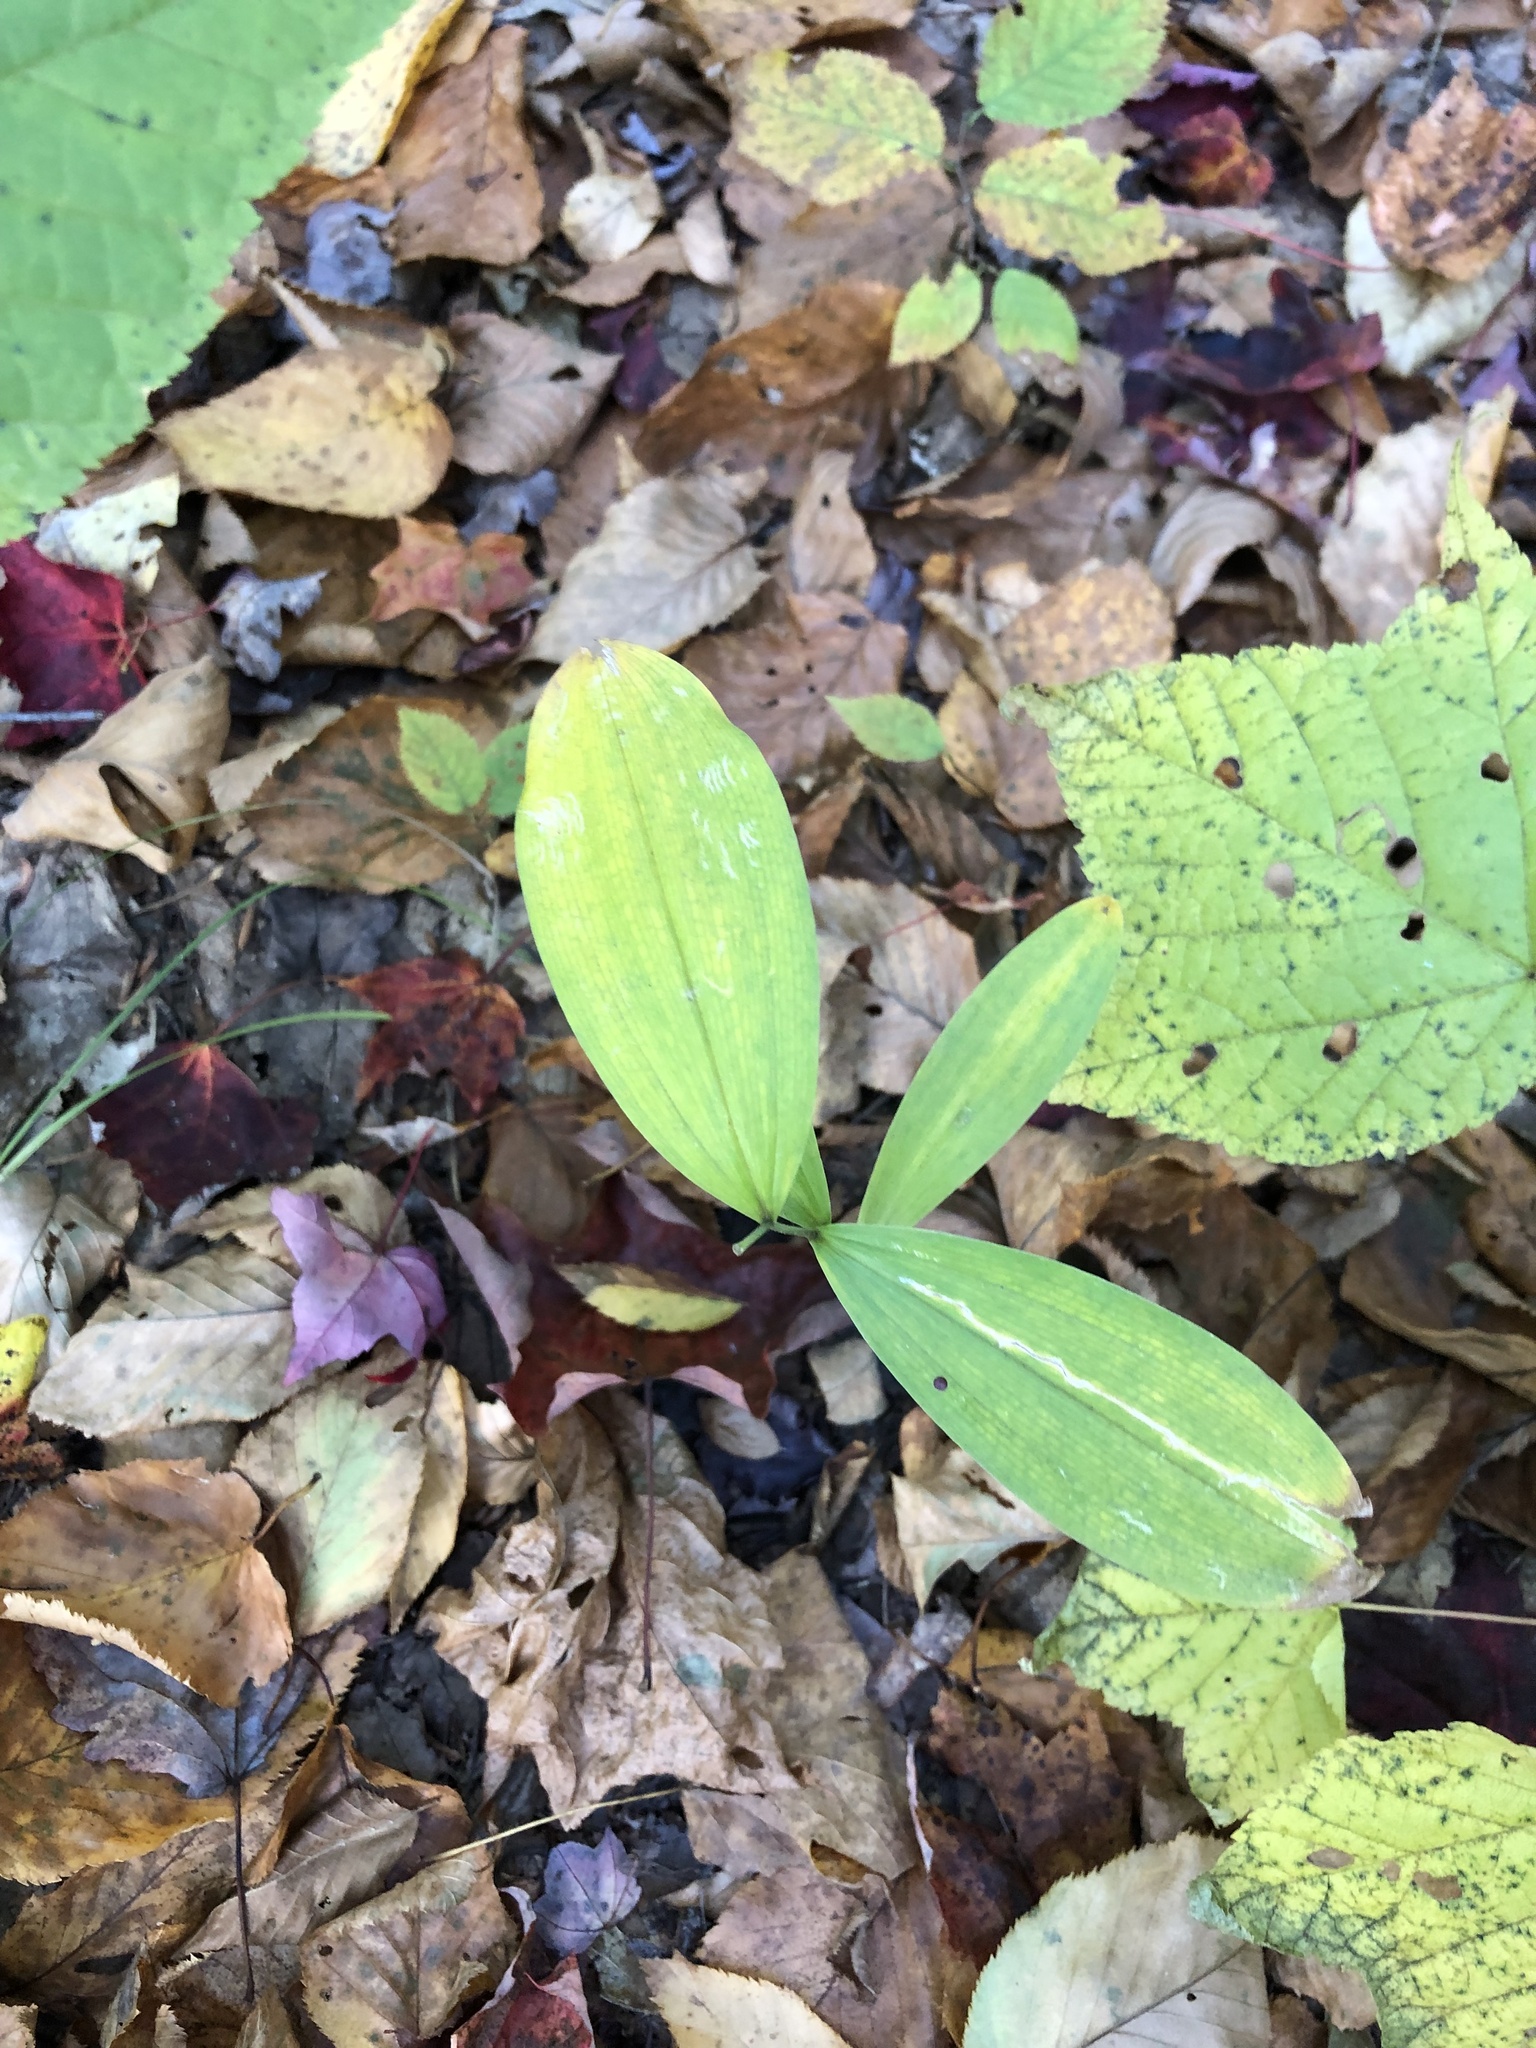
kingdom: Plantae
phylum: Tracheophyta
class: Liliopsida
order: Liliales
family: Colchicaceae
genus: Uvularia
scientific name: Uvularia sessilifolia
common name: Straw-lily
